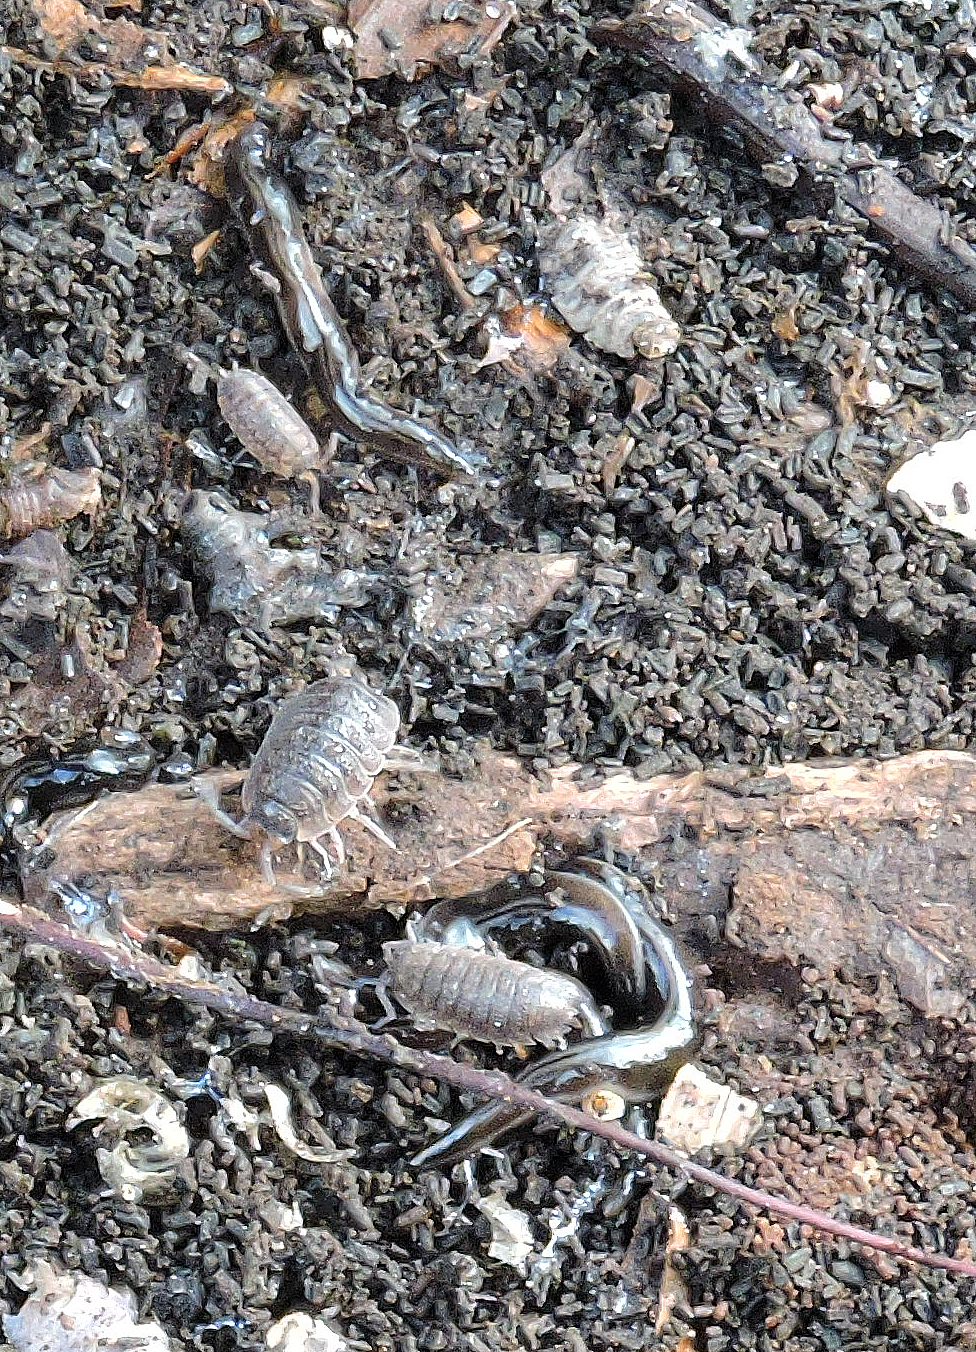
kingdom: Animalia
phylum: Platyhelminthes
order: Tricladida
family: Geoplanidae
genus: Parakontikia
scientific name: Parakontikia ventrolineata
